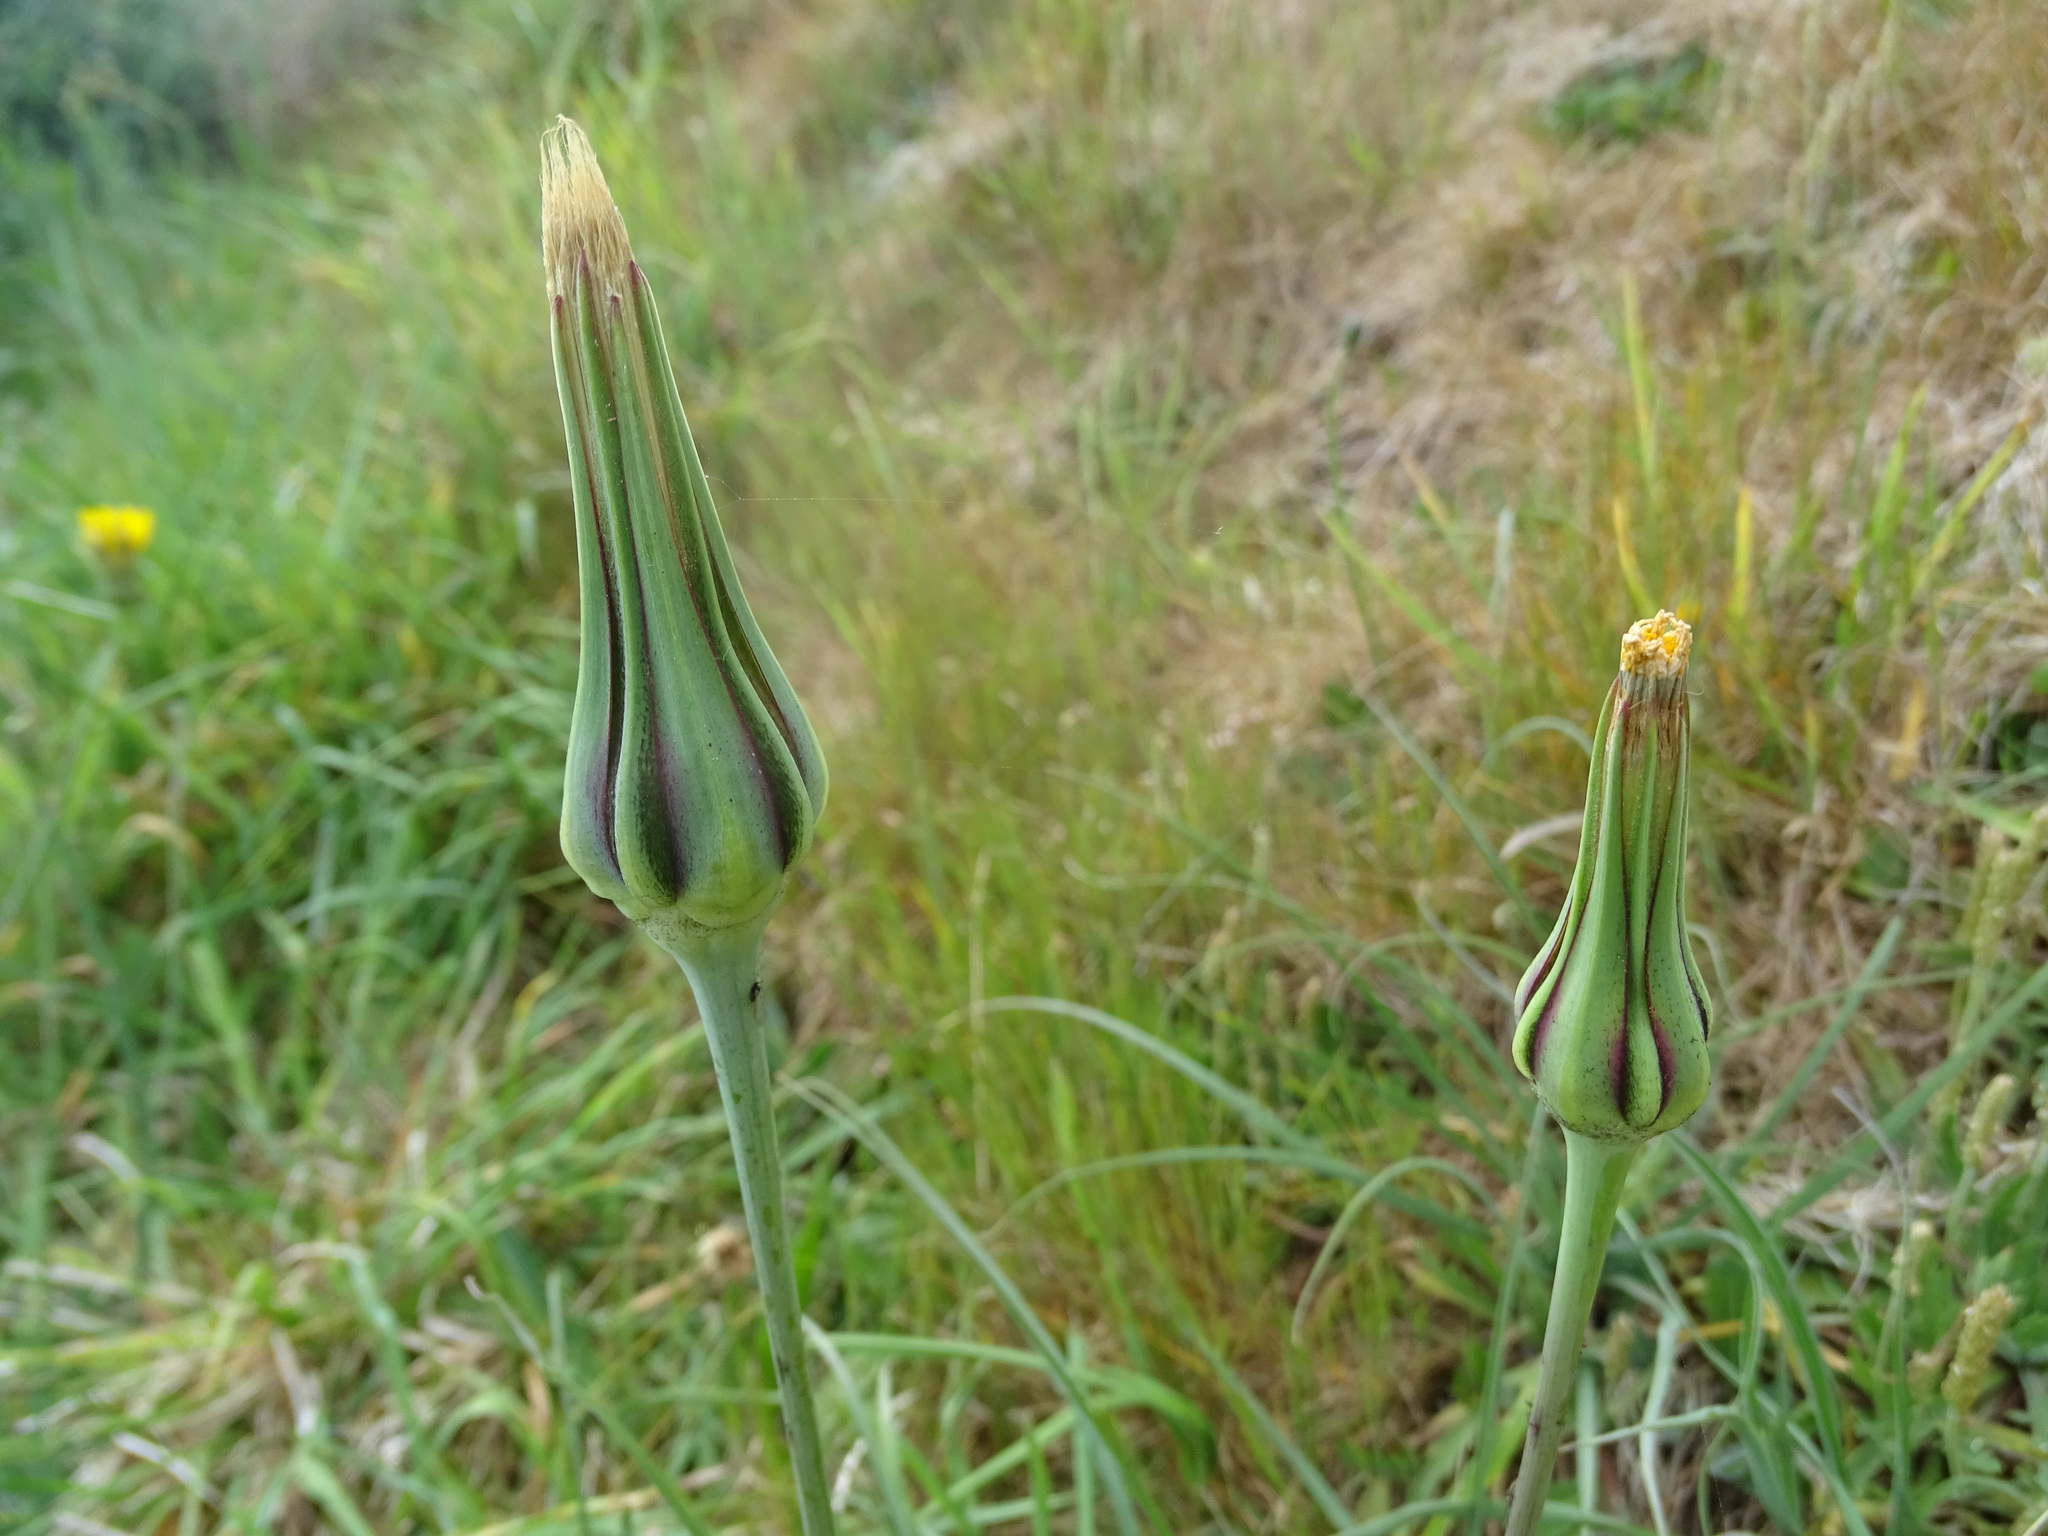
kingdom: Plantae
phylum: Tracheophyta
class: Magnoliopsida
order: Asterales
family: Asteraceae
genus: Tragopogon
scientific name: Tragopogon pratensis
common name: Goat's-beard
